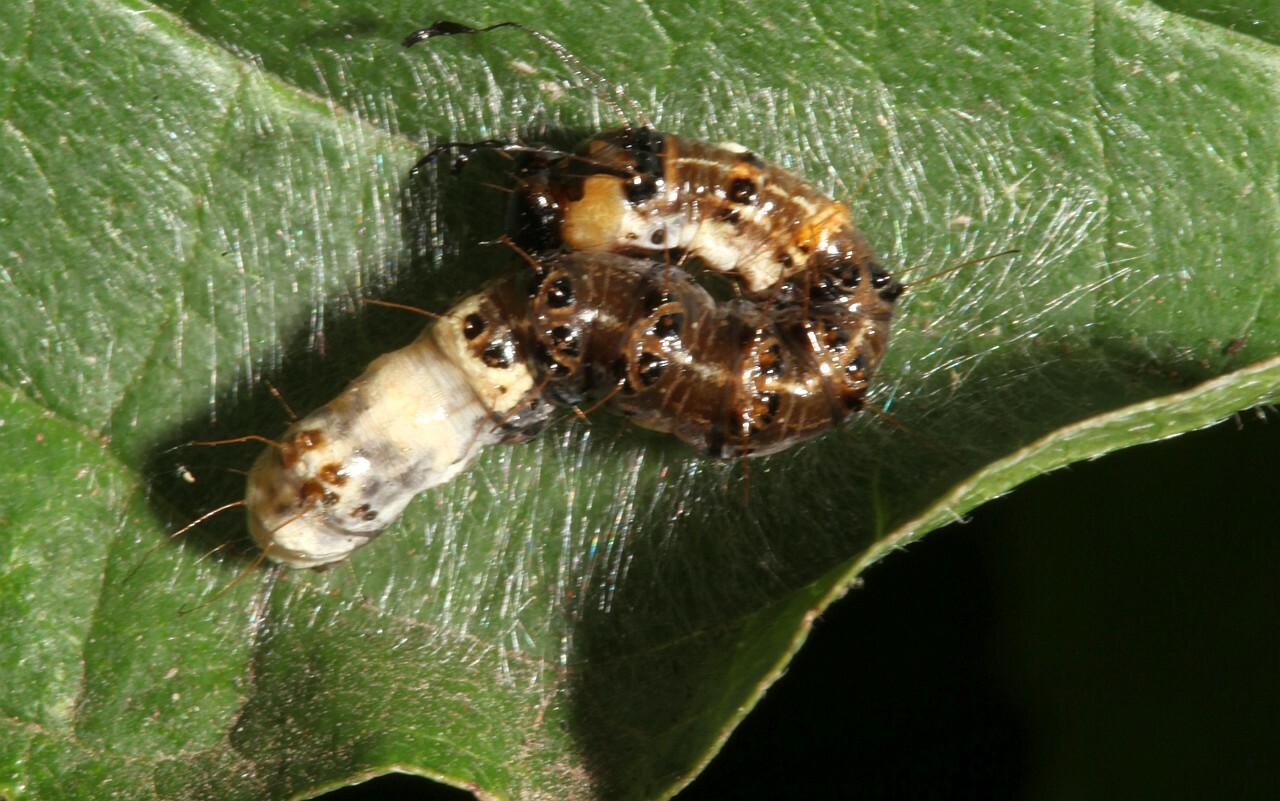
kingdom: Animalia
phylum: Arthropoda
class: Insecta
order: Lepidoptera
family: Noctuidae
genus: Acronicta
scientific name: Acronicta alni
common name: Alder moth
